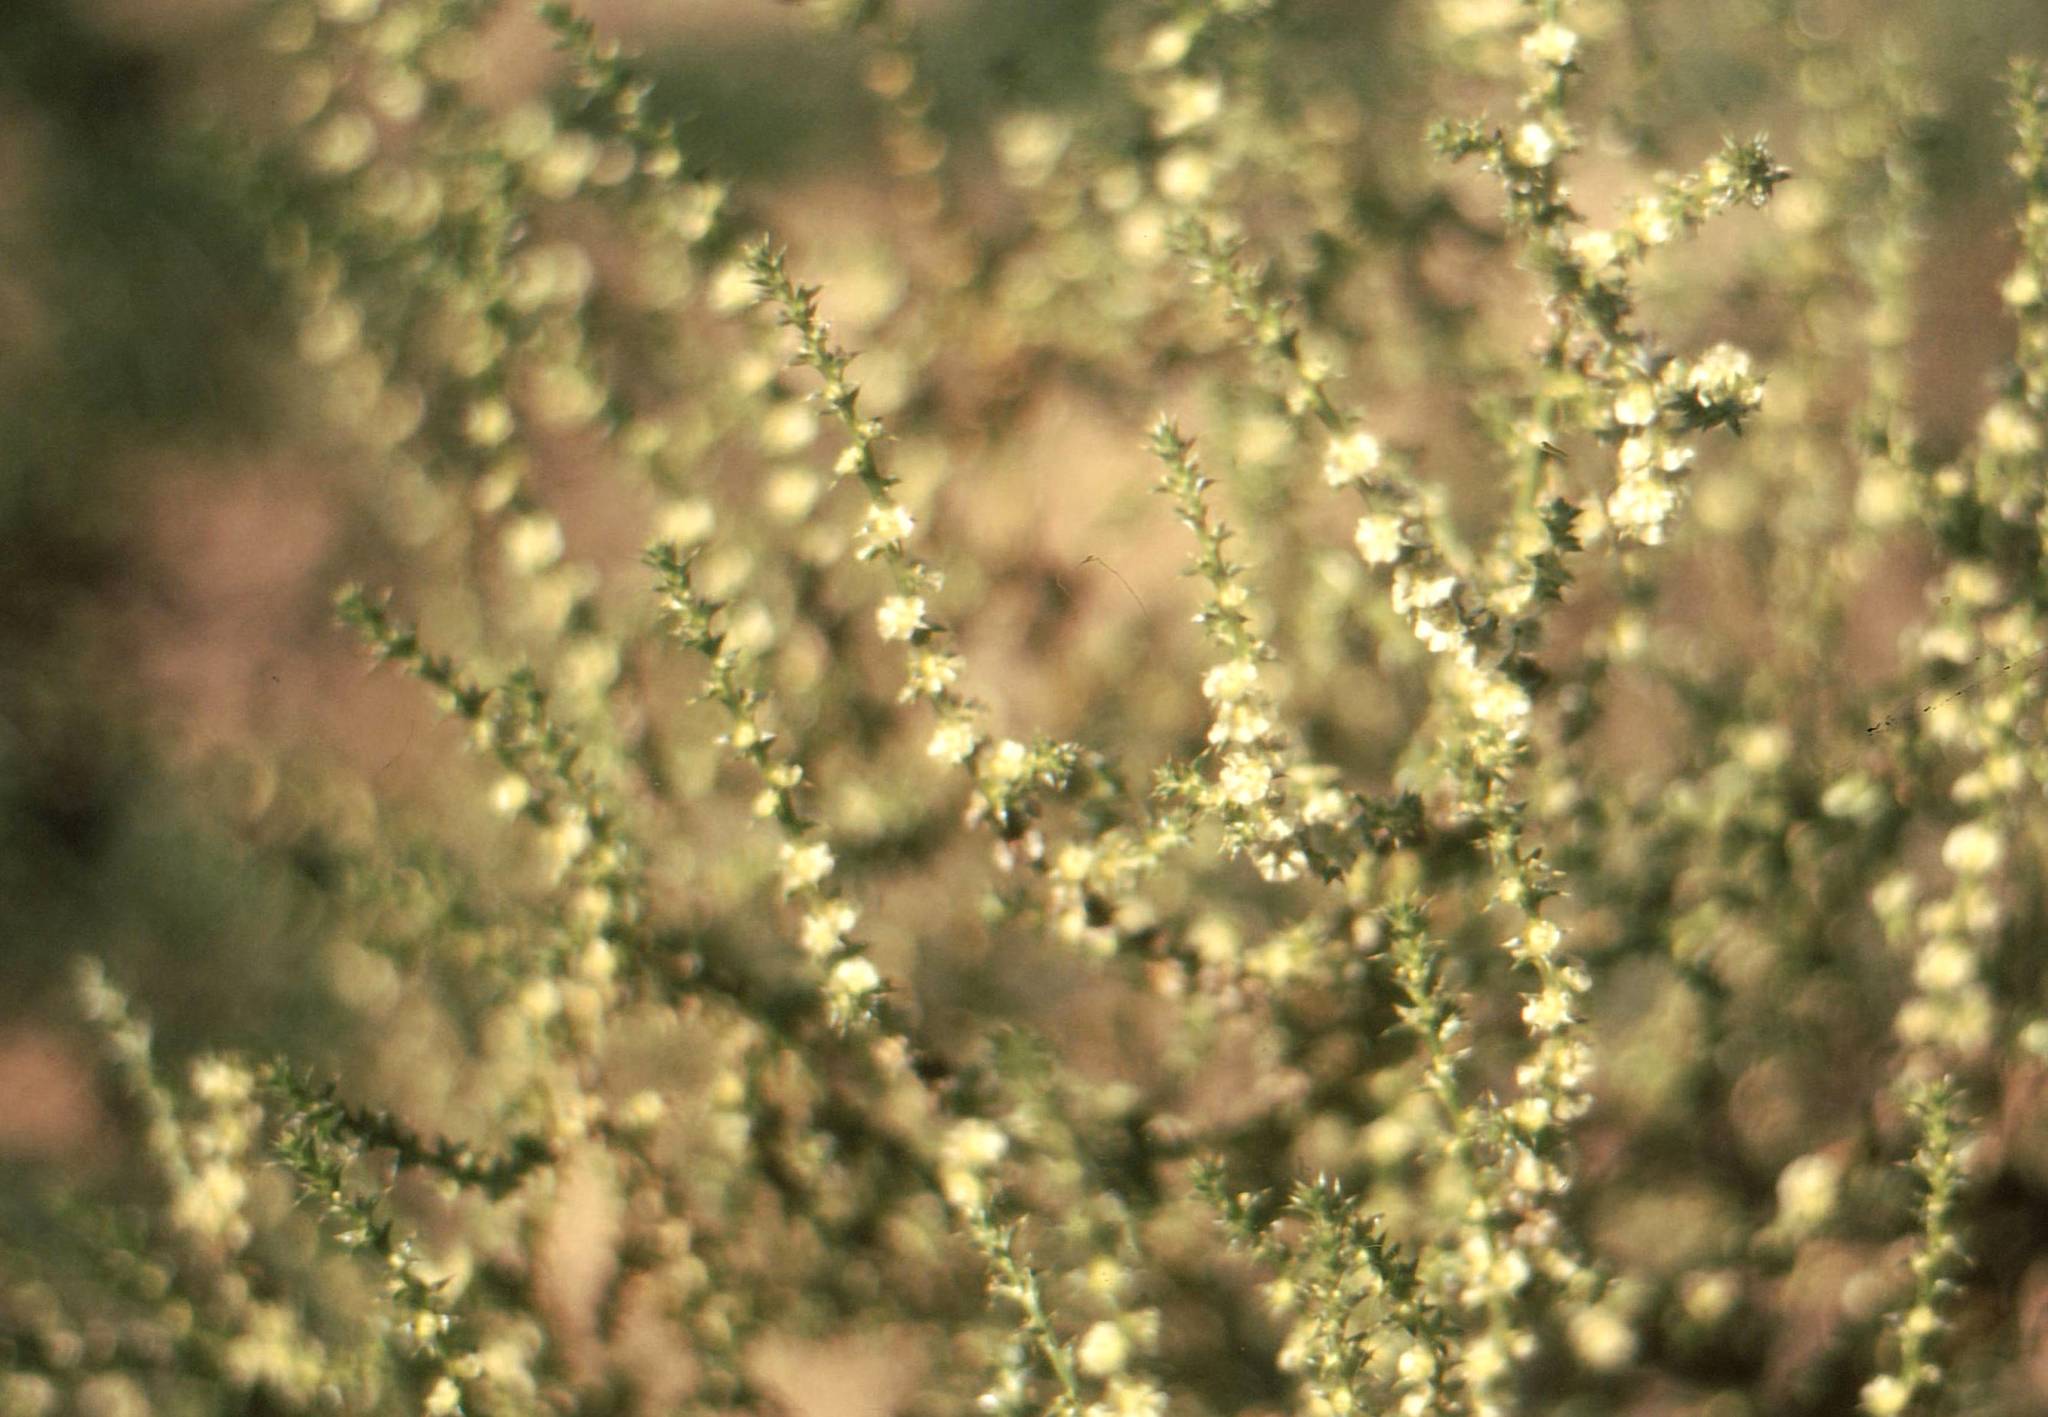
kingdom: Plantae
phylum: Tracheophyta
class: Magnoliopsida
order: Caryophyllales
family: Amaranthaceae
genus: Salsola
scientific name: Salsola kali
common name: Saltwort
